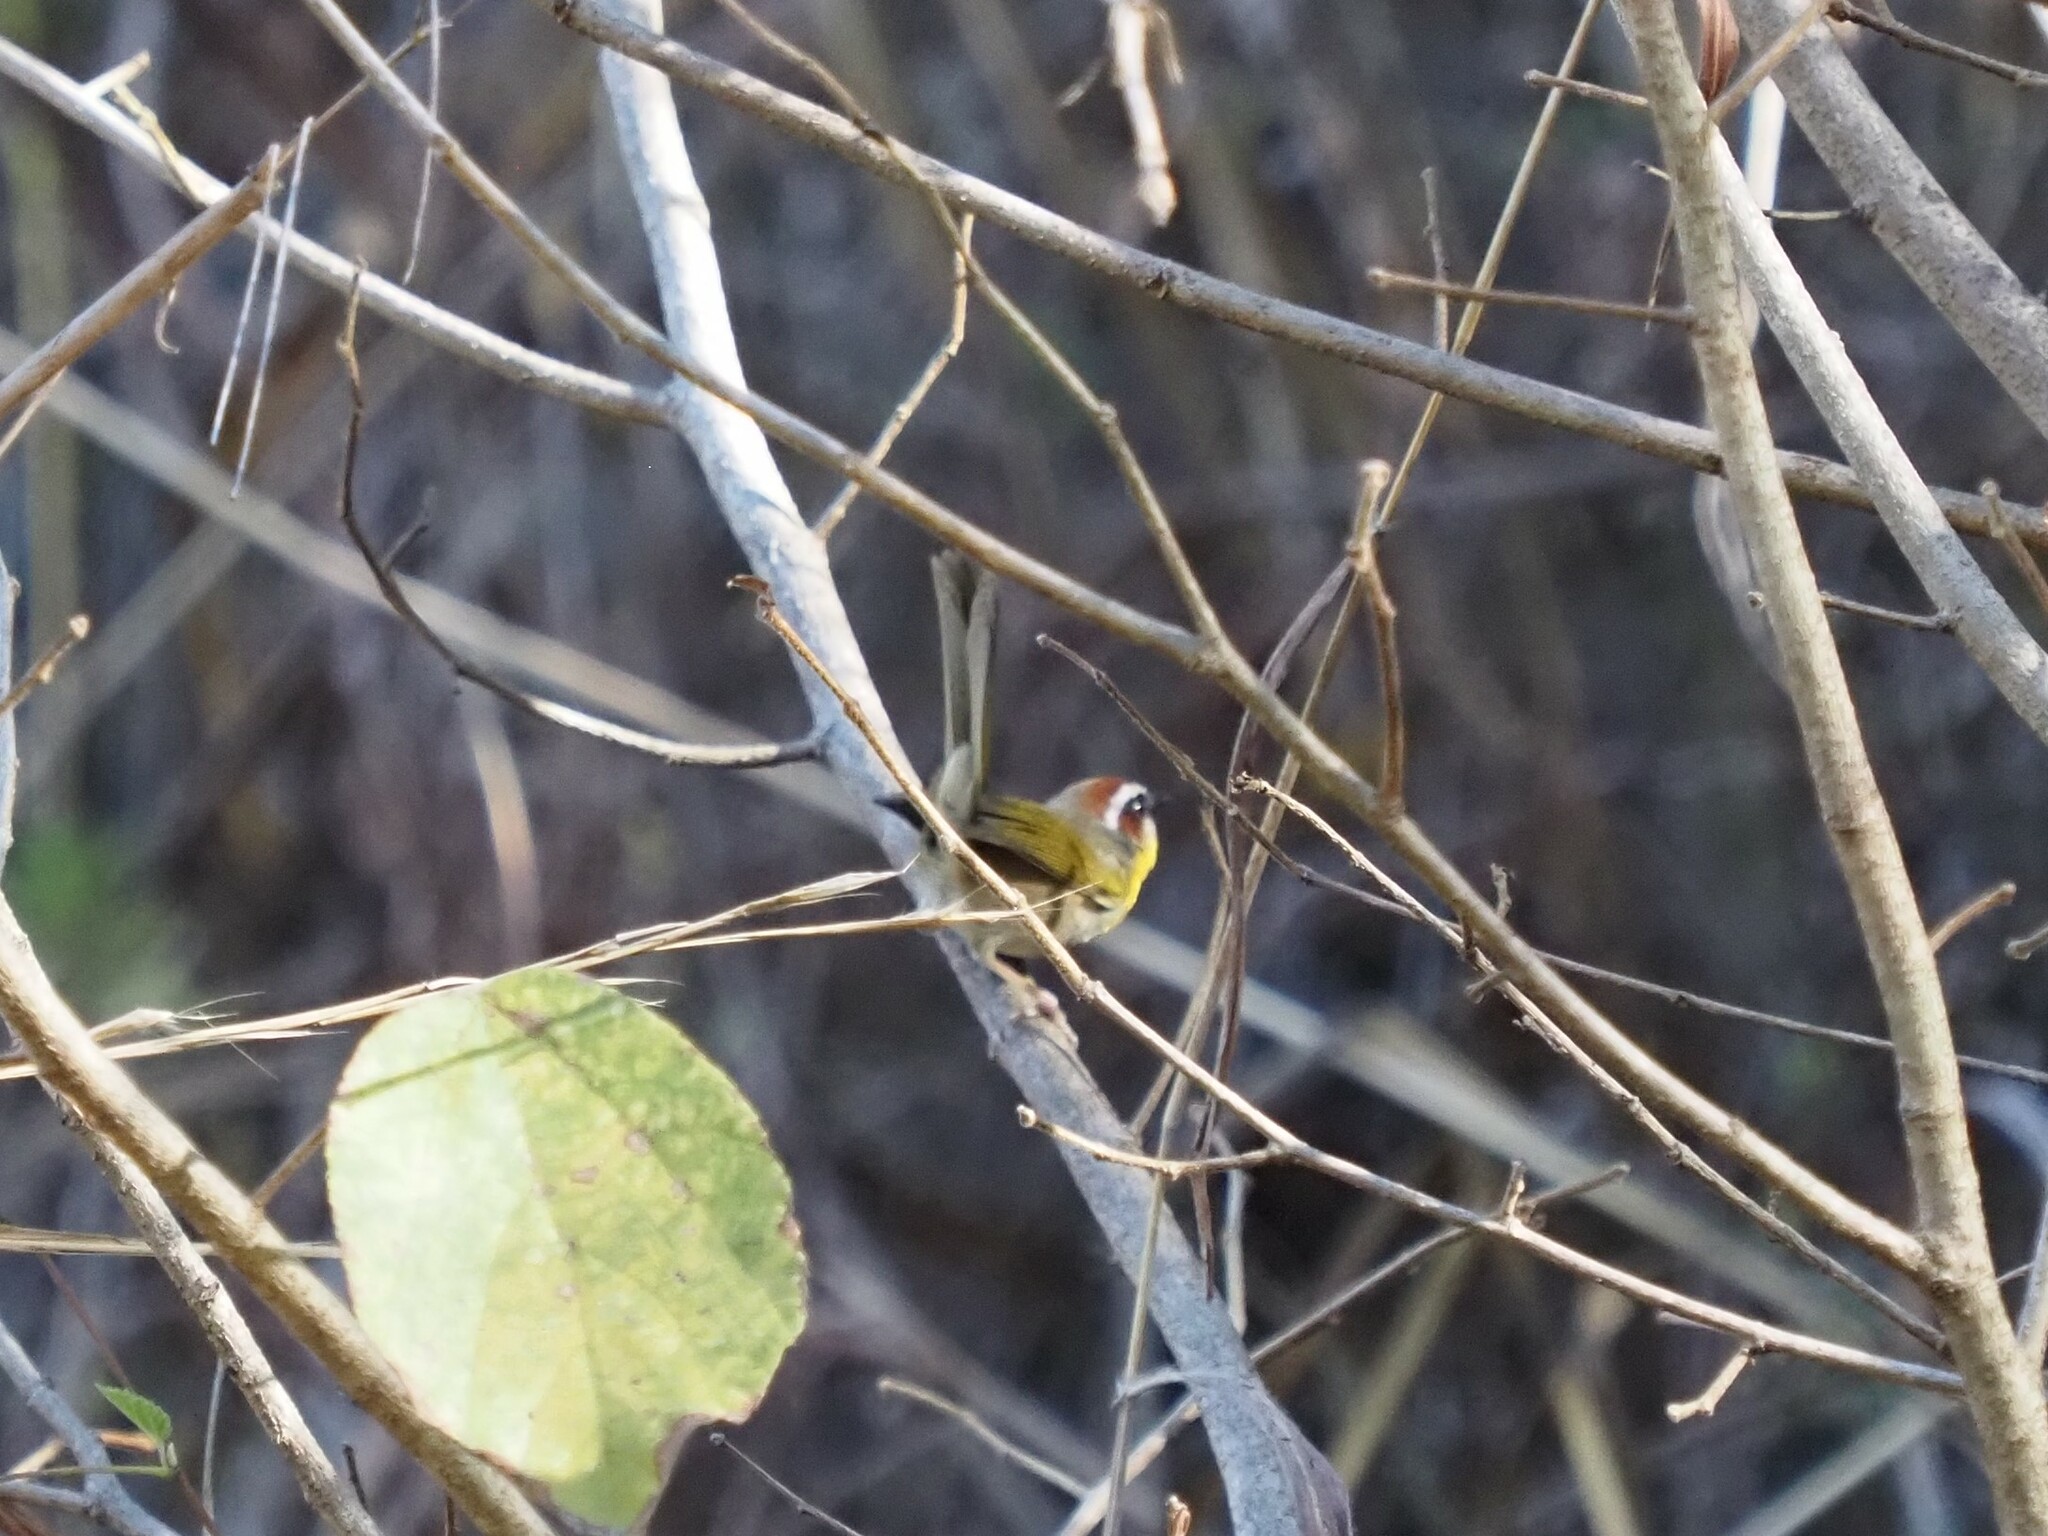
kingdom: Animalia
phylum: Chordata
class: Aves
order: Passeriformes
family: Parulidae
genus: Basileuterus
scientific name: Basileuterus rufifrons
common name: Rufous-capped warbler
